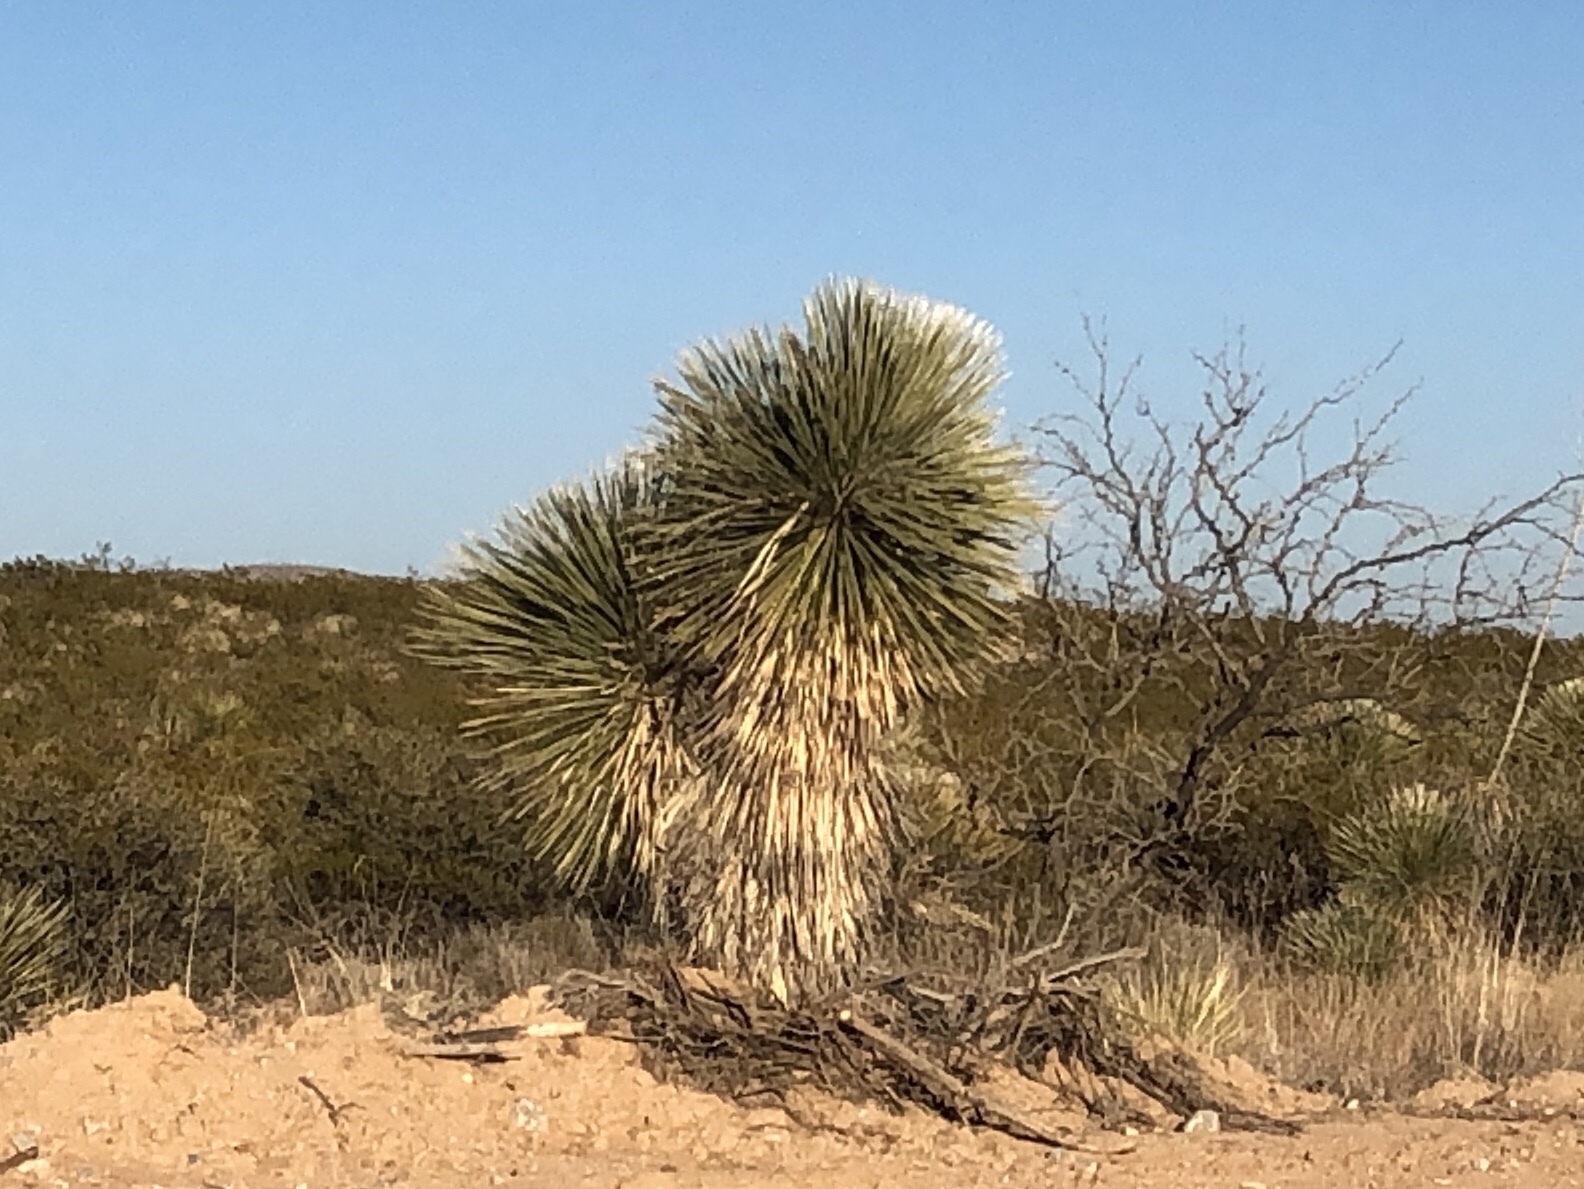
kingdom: Plantae
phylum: Tracheophyta
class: Liliopsida
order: Asparagales
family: Asparagaceae
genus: Yucca
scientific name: Yucca elata
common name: Palmella
